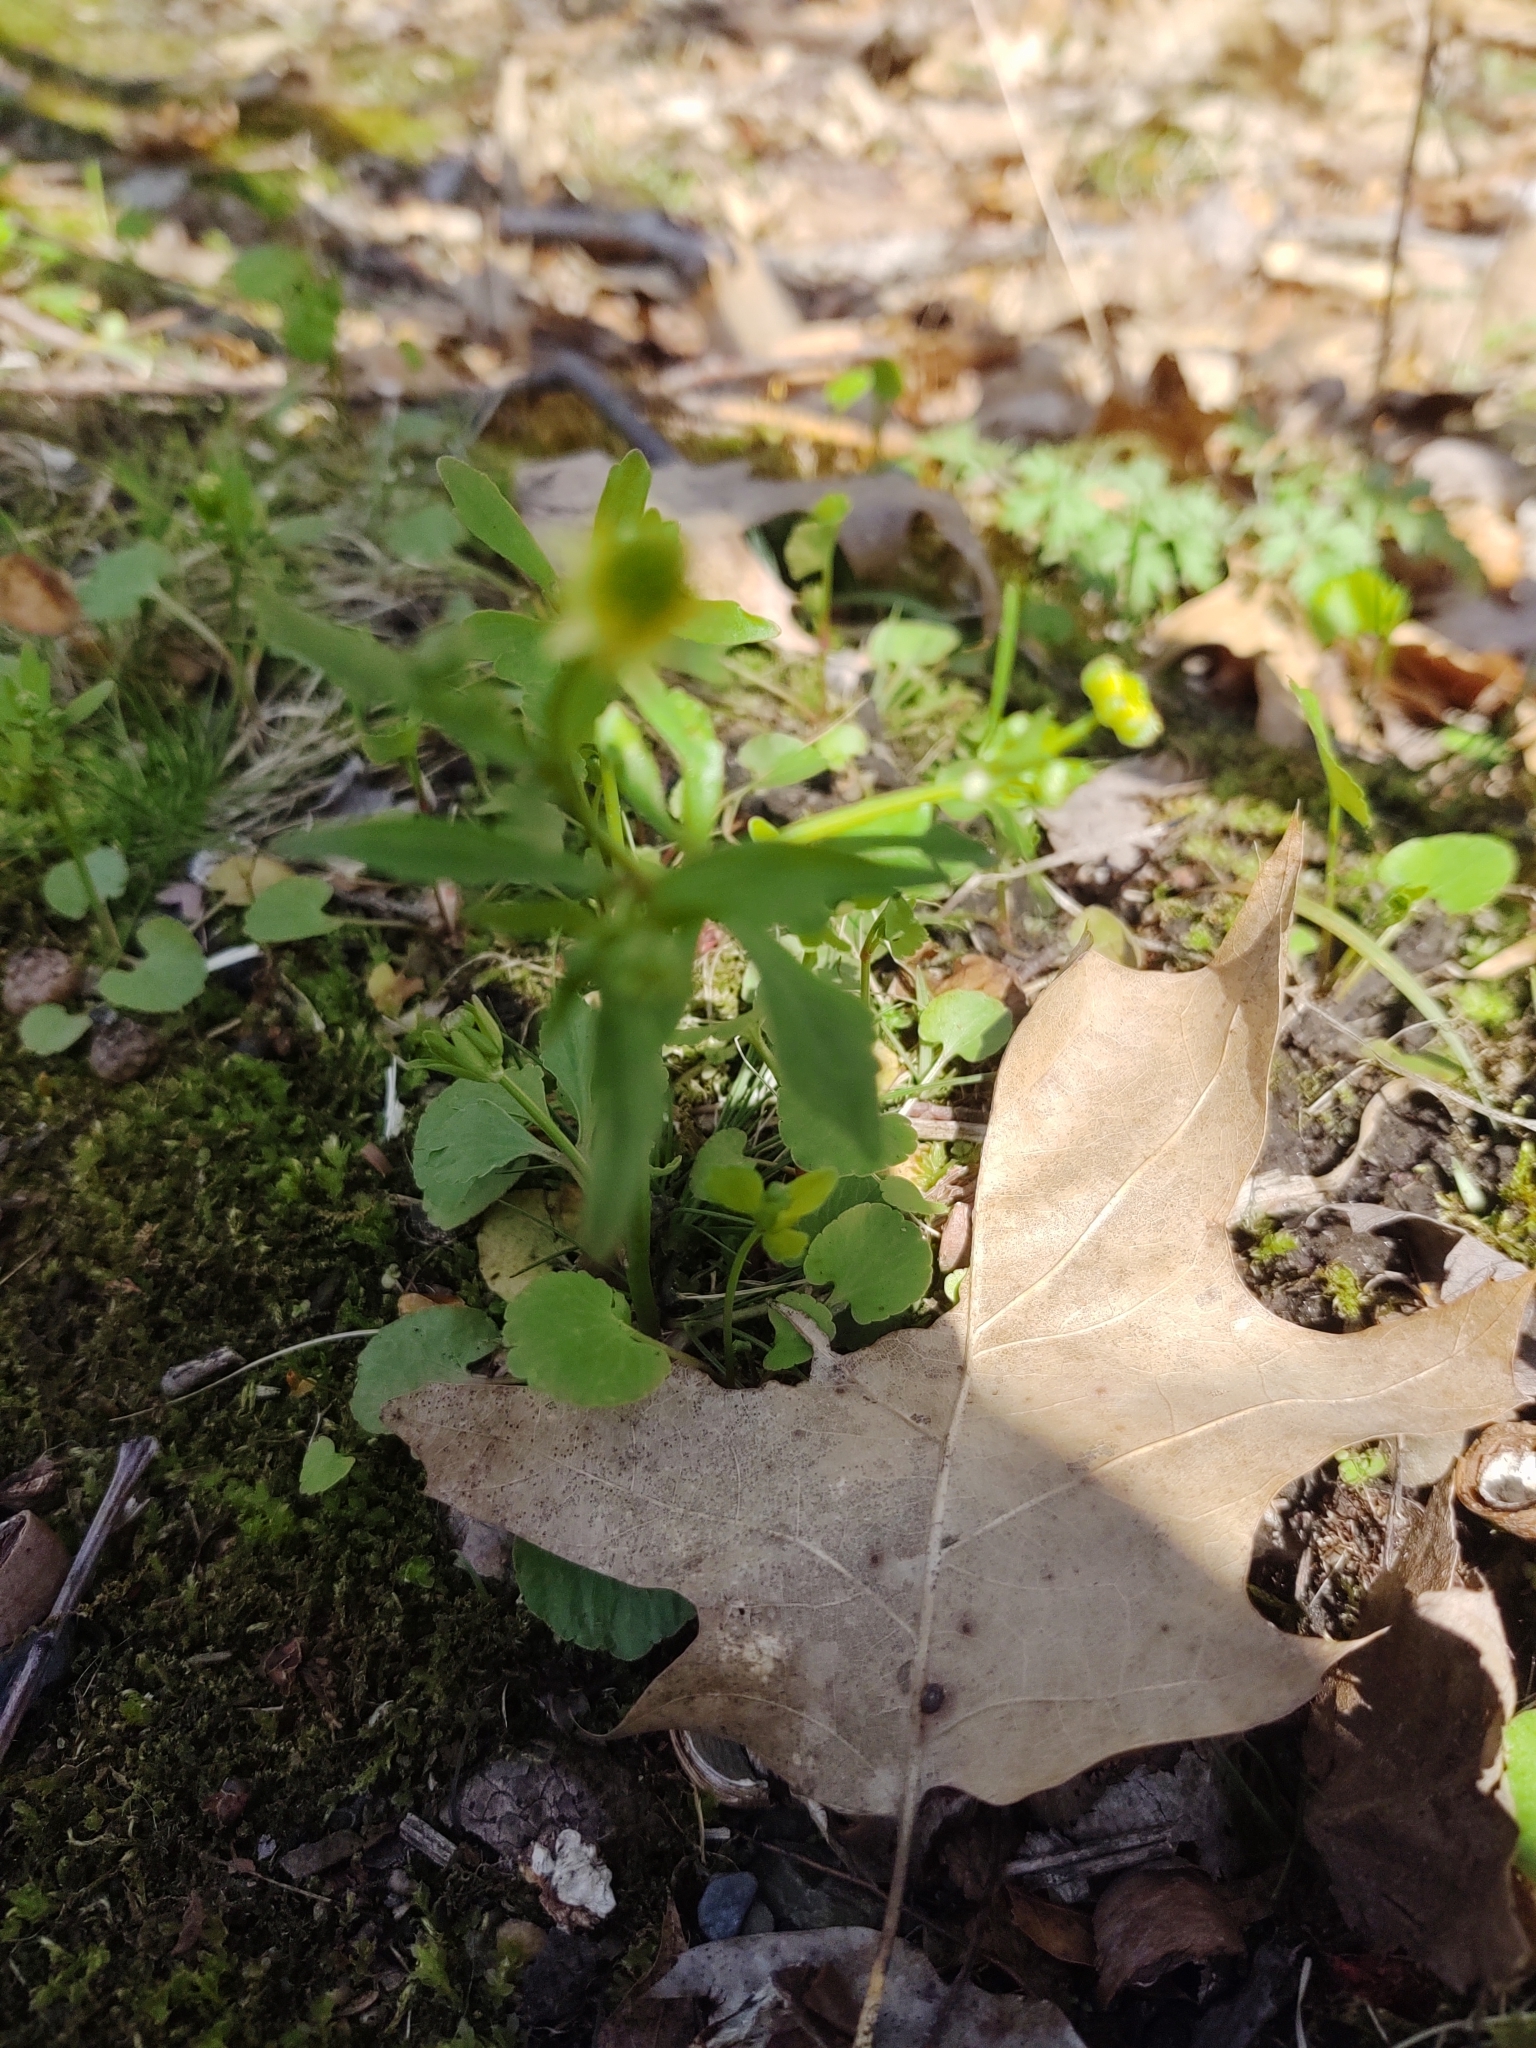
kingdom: Plantae
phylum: Tracheophyta
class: Magnoliopsida
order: Ranunculales
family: Ranunculaceae
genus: Ranunculus
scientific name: Ranunculus abortivus
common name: Early wood buttercup
